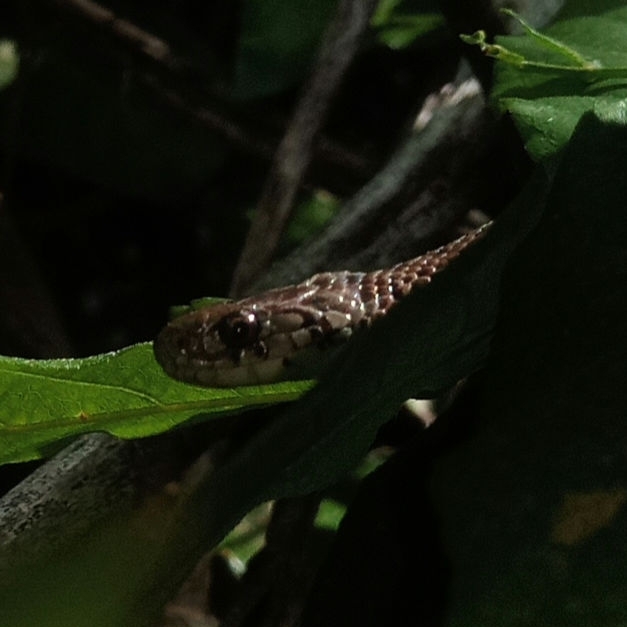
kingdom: Animalia
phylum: Chordata
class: Squamata
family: Colubridae
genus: Storeria
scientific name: Storeria dekayi
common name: (dekay’s) brown snake
